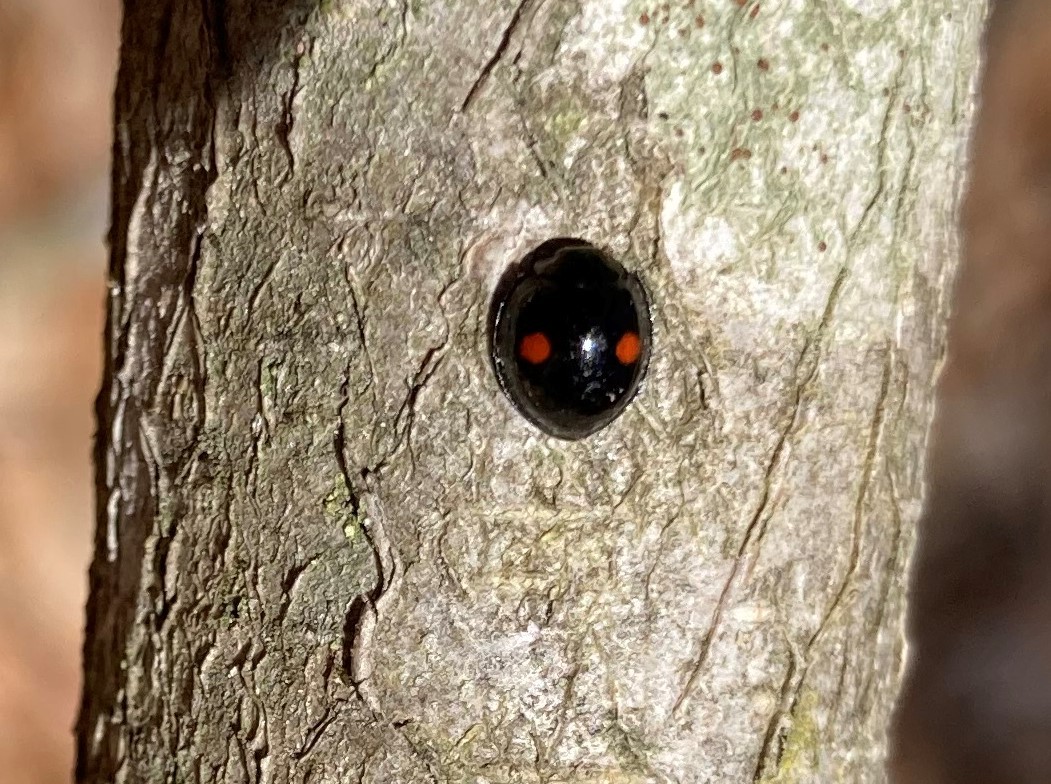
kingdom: Animalia
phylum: Arthropoda
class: Insecta
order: Coleoptera
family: Coccinellidae
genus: Chilocorus
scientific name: Chilocorus stigma
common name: Twicestabbed lady beetle
